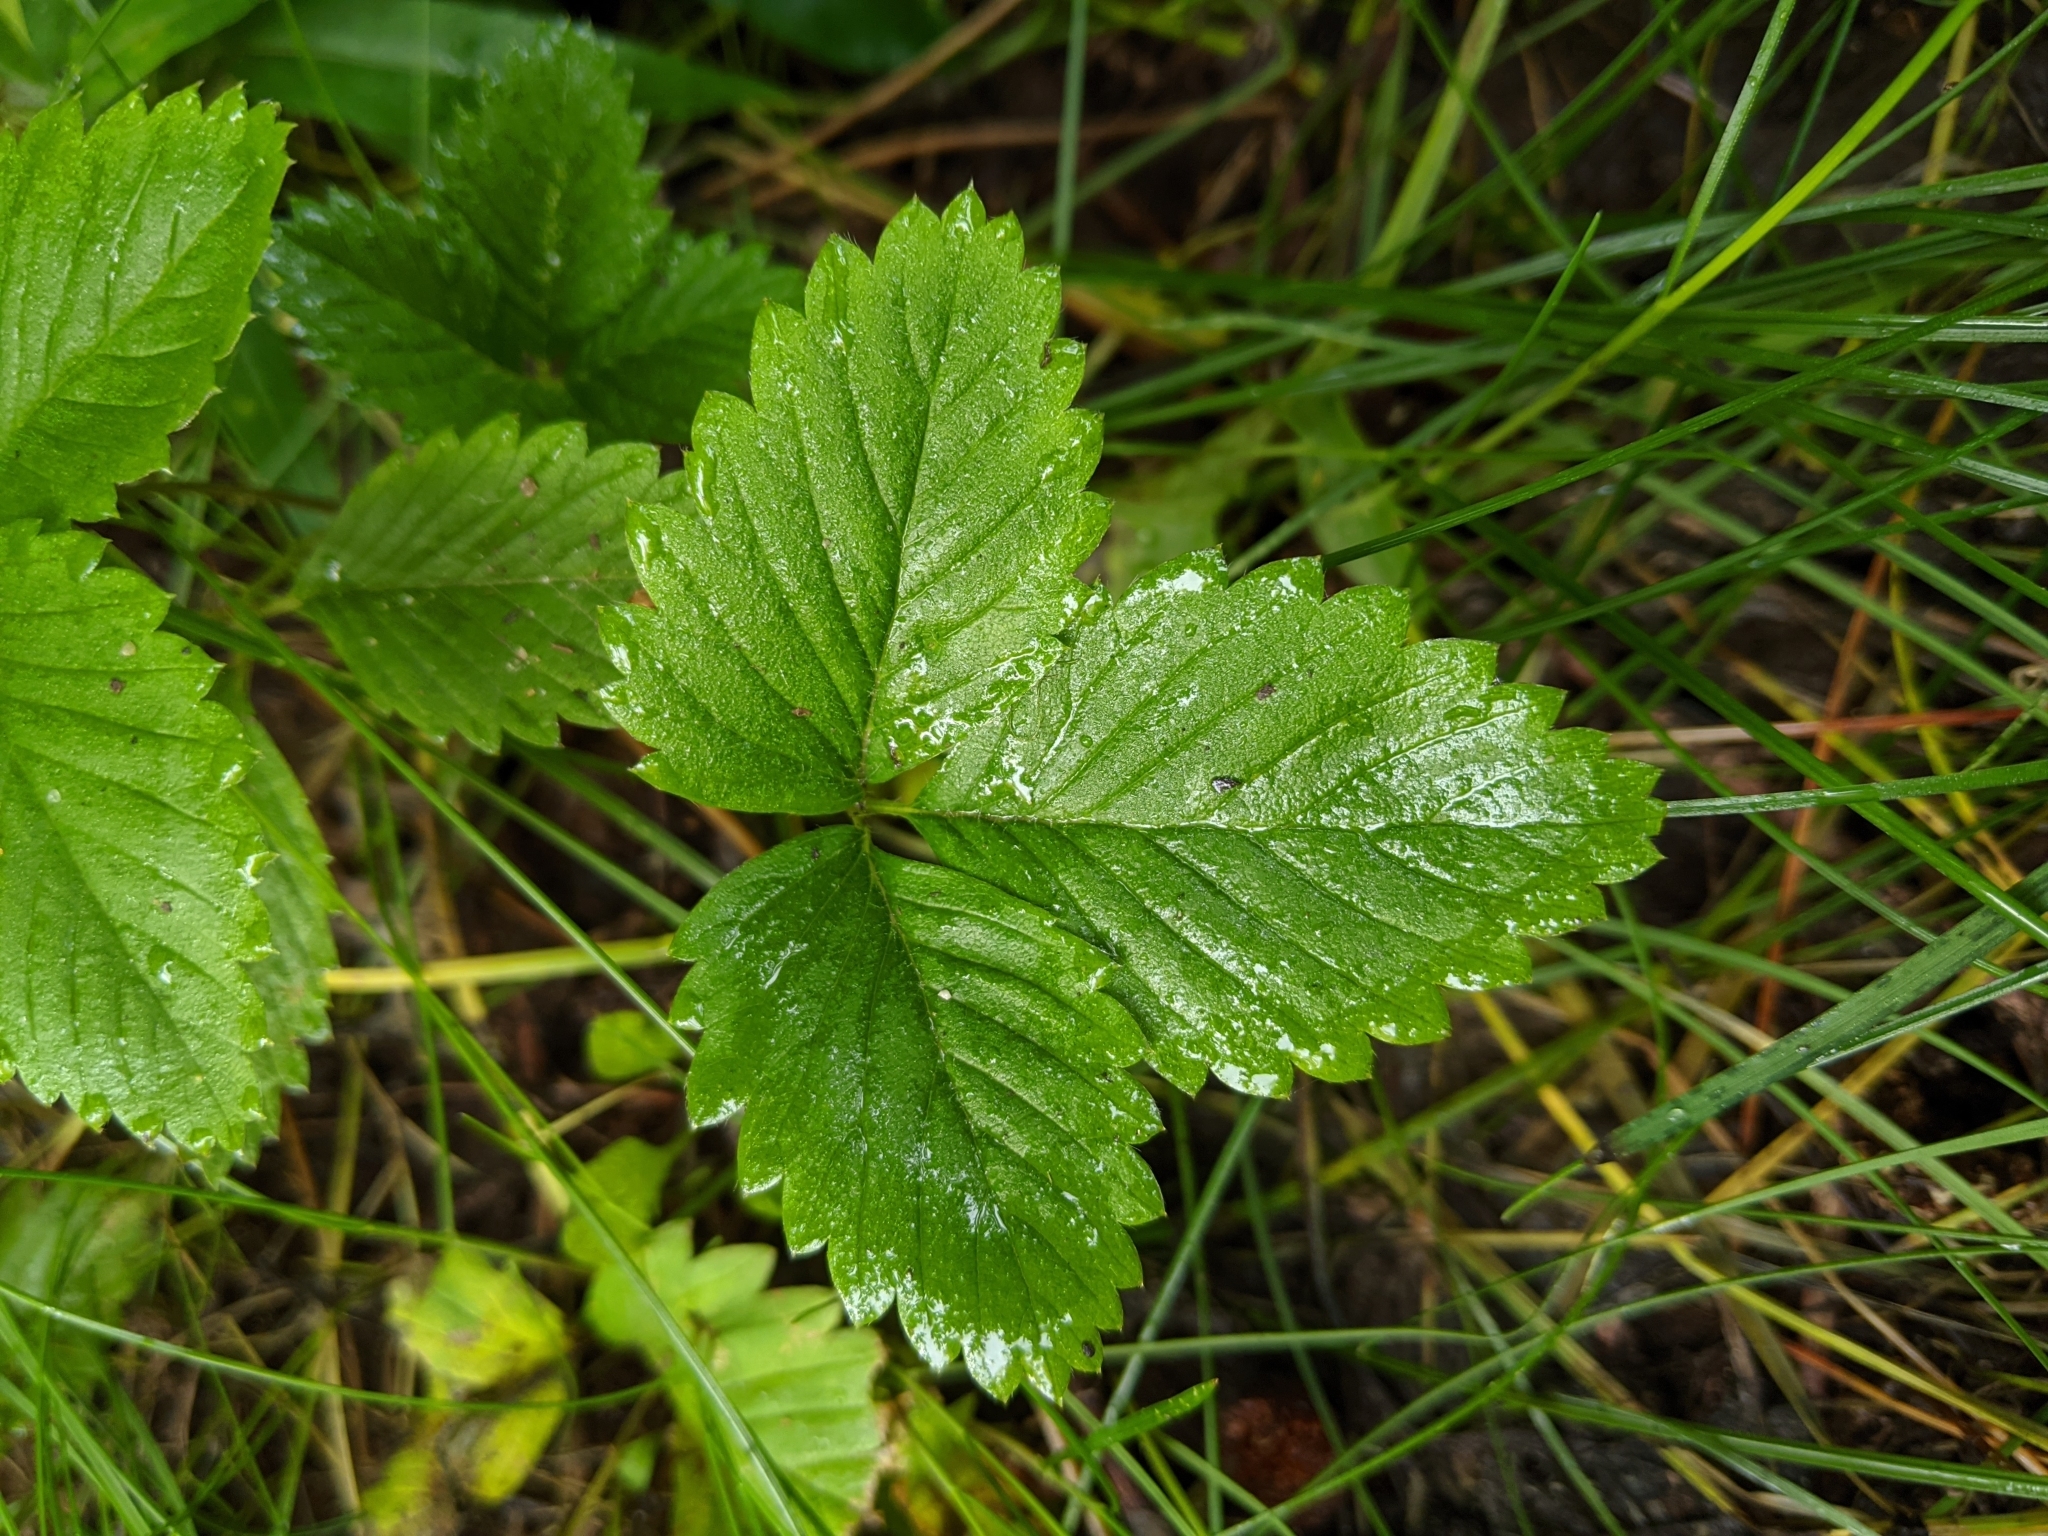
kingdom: Plantae
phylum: Tracheophyta
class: Magnoliopsida
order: Rosales
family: Rosaceae
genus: Fragaria
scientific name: Fragaria vesca
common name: Wild strawberry
